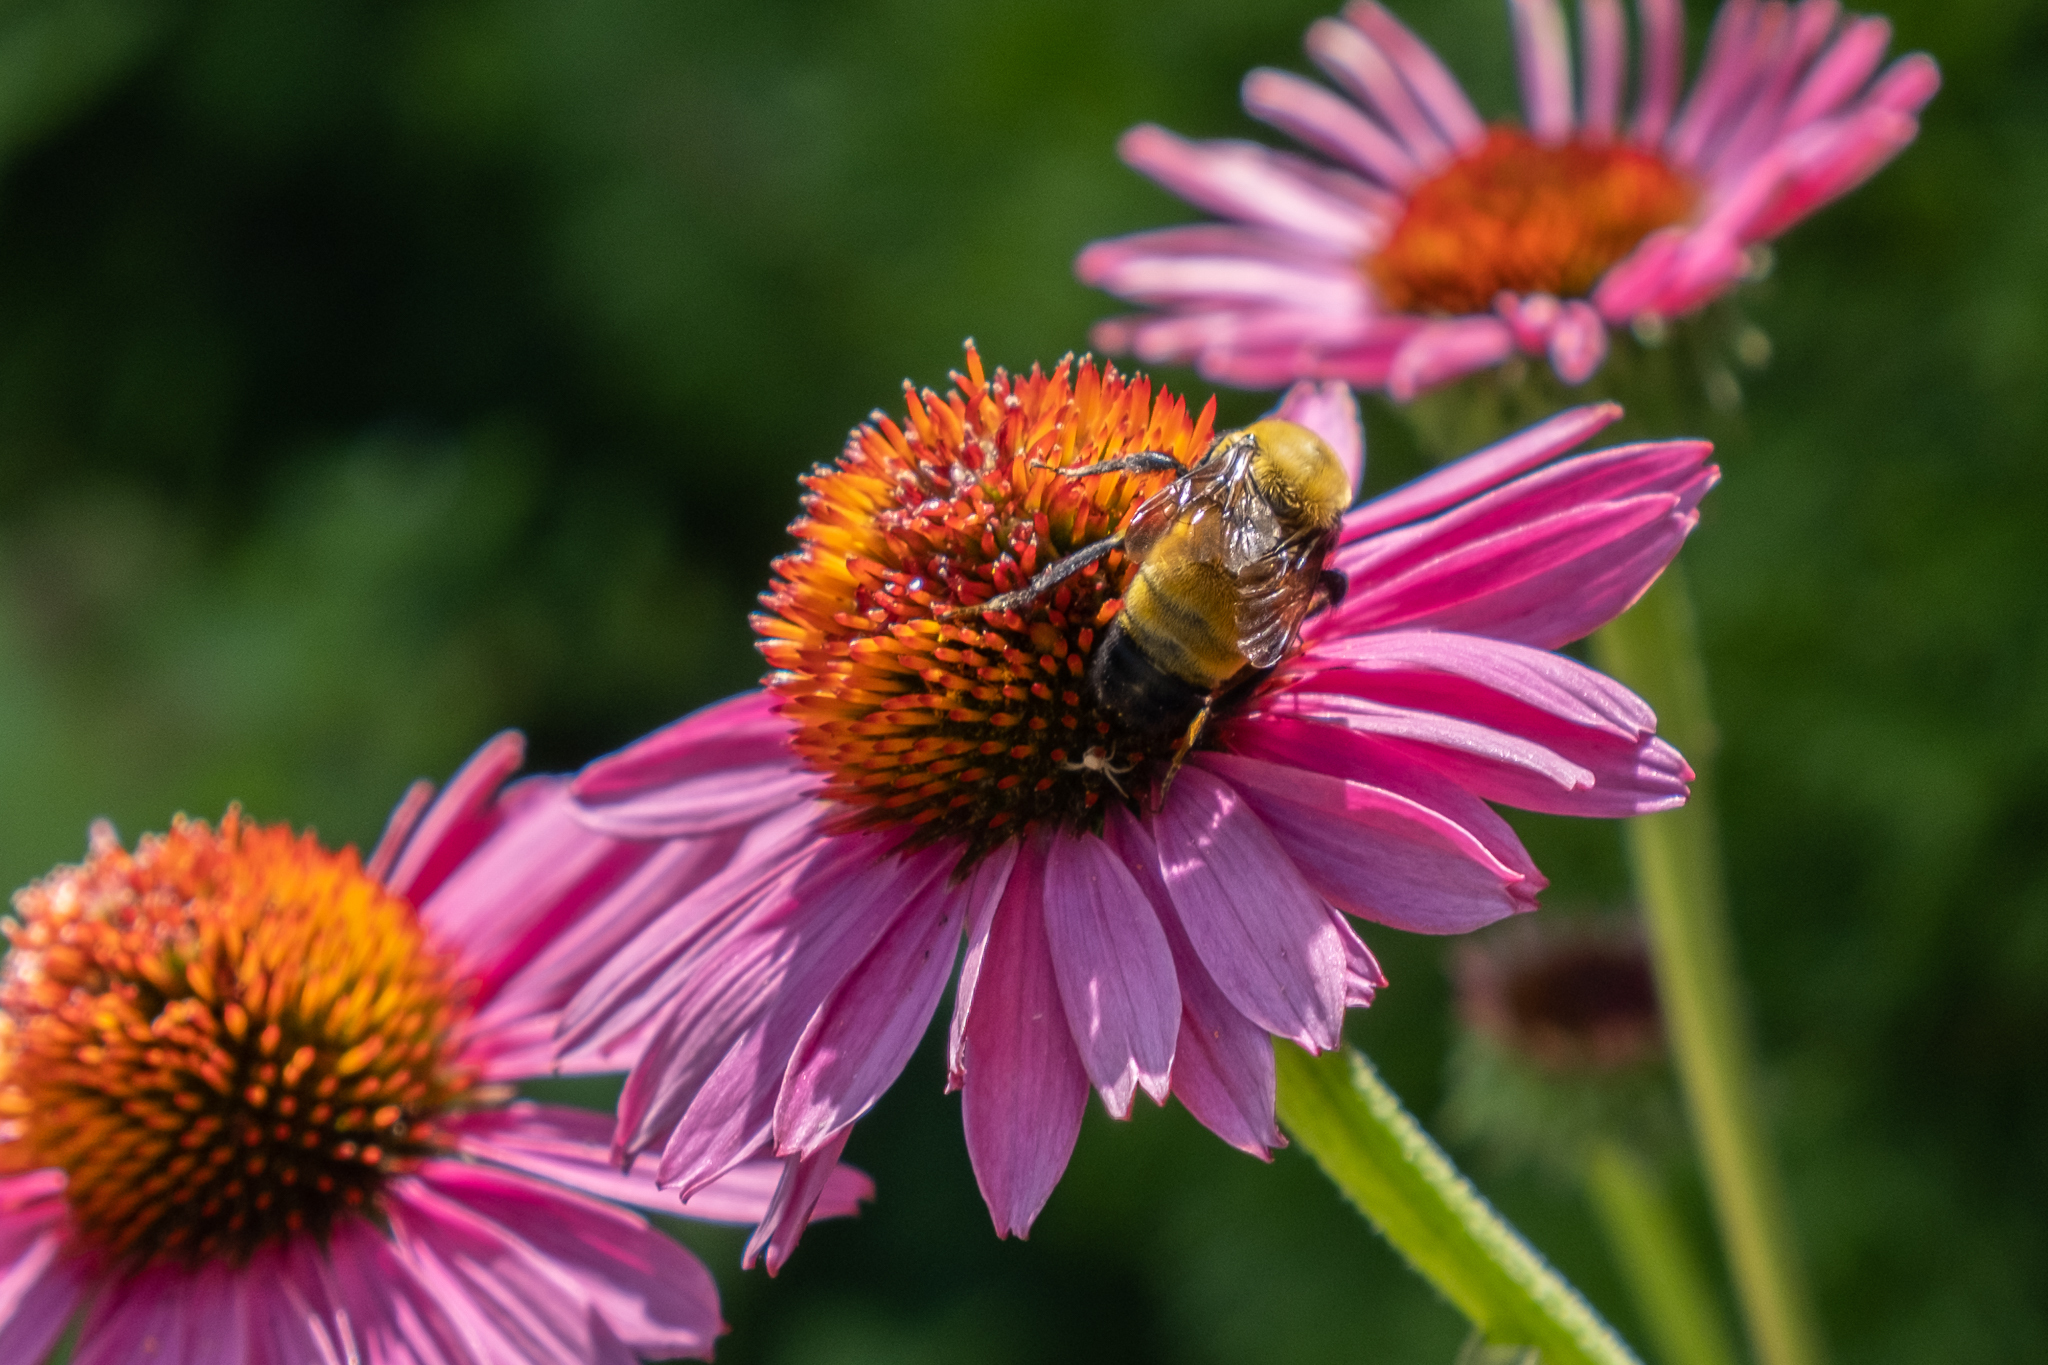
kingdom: Animalia
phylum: Arthropoda
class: Insecta
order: Hymenoptera
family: Apidae
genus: Bombus
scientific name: Bombus morrisoni
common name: Morrison bumble bee
